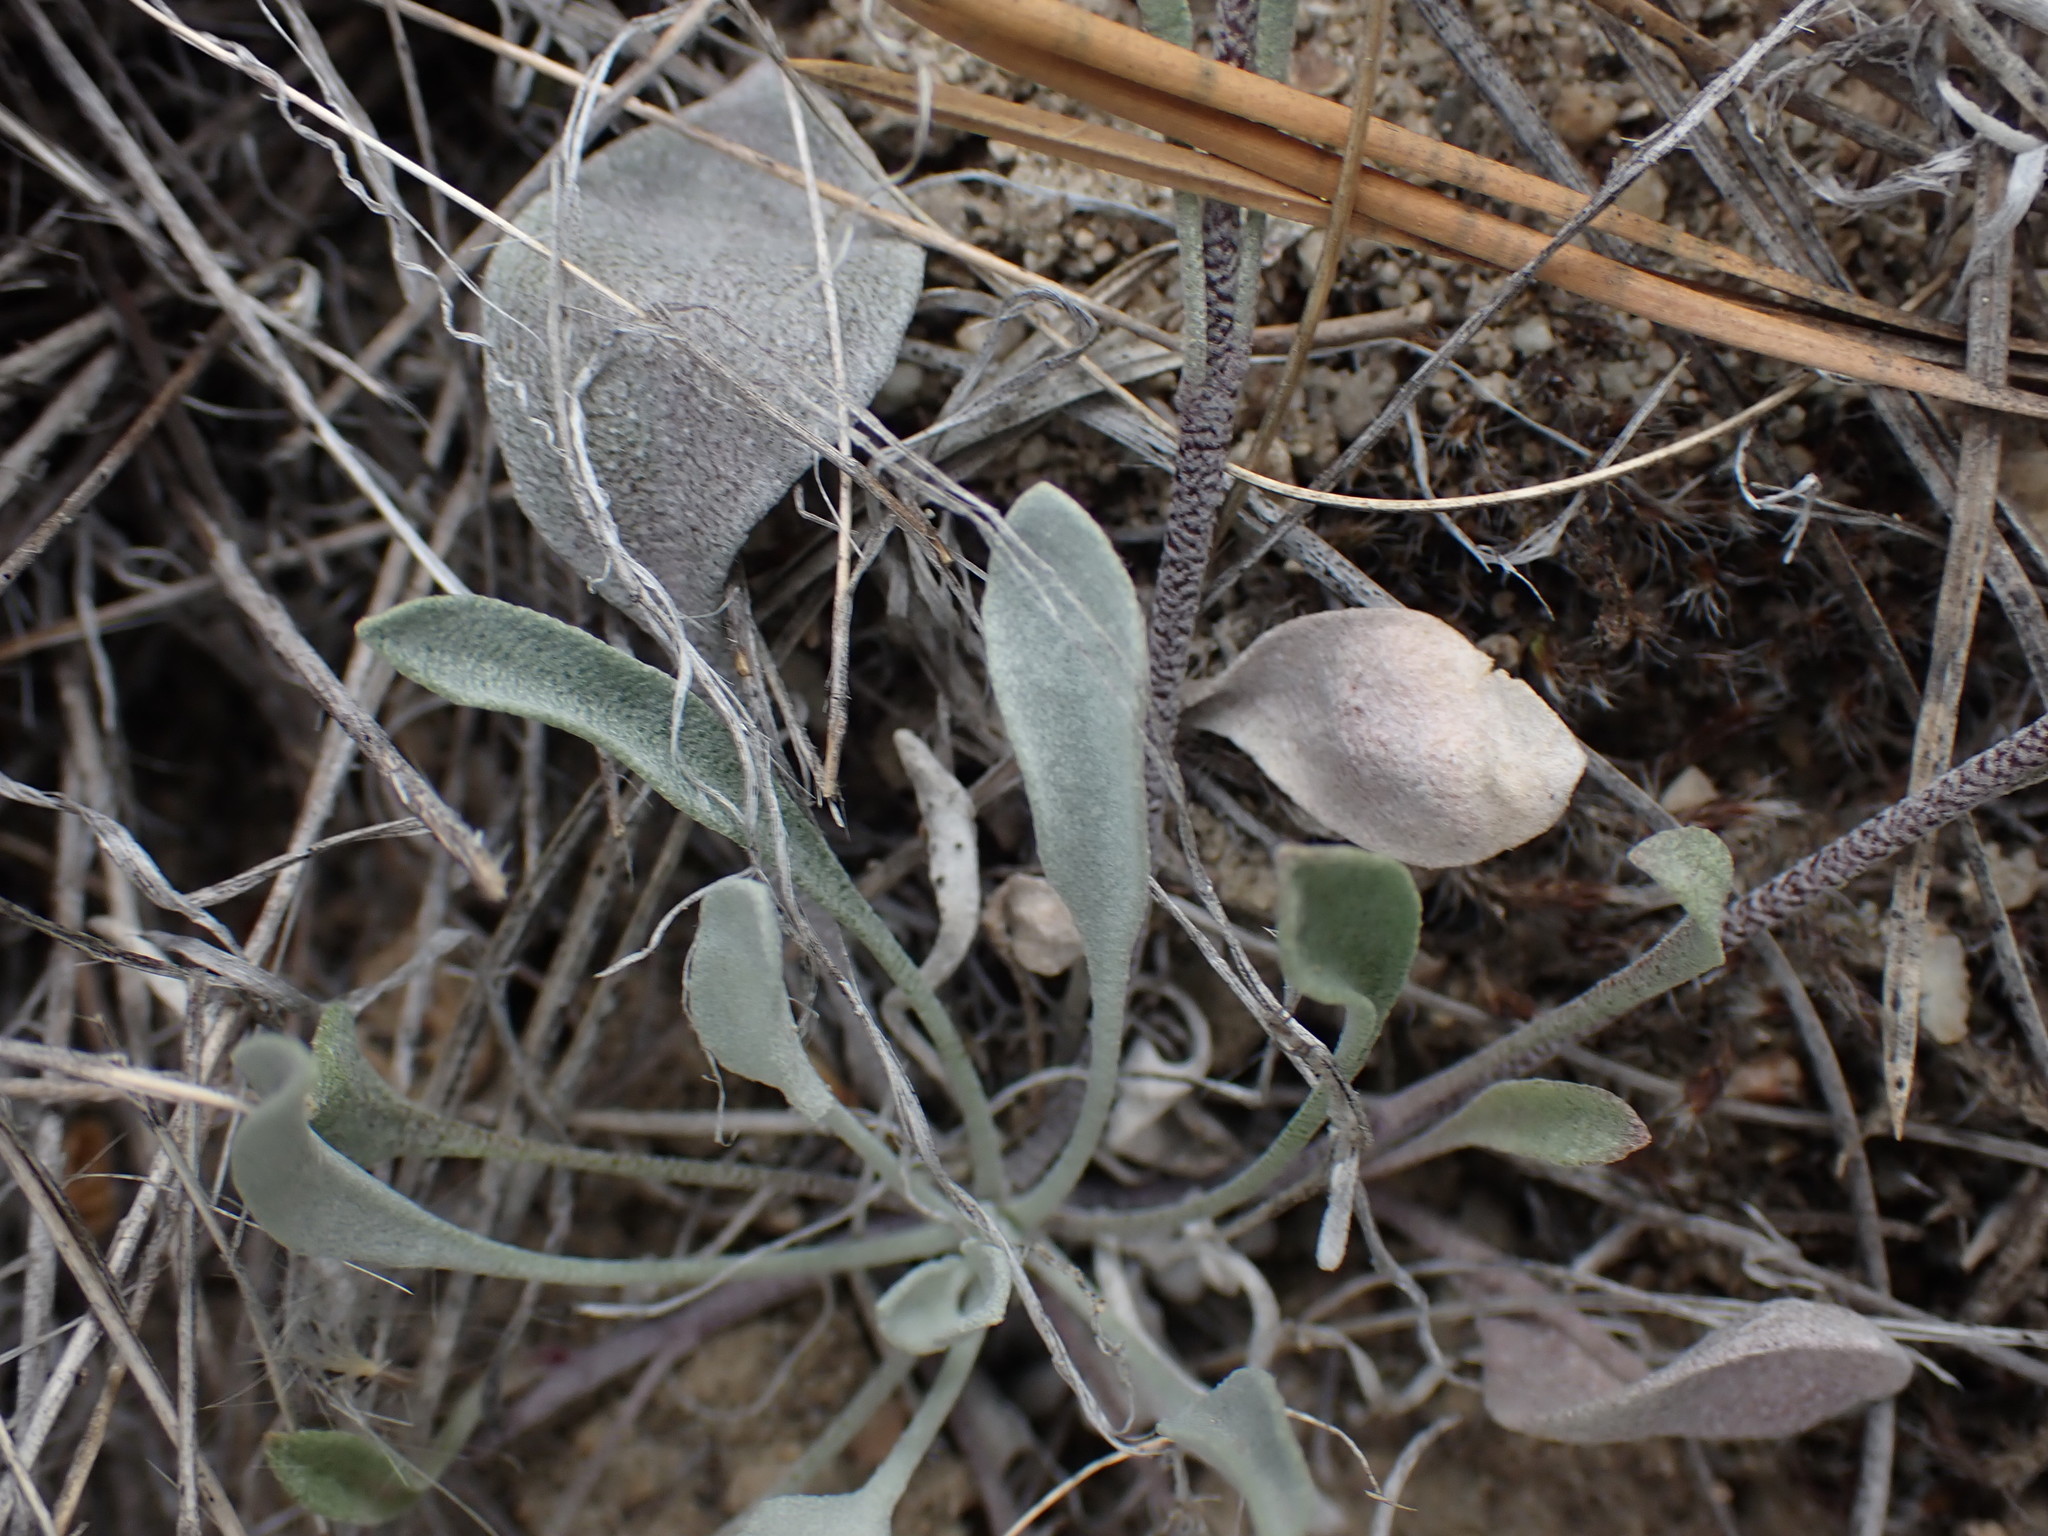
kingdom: Plantae
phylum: Tracheophyta
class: Magnoliopsida
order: Brassicales
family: Brassicaceae
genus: Physaria
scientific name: Physaria douglasii
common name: Douglas's bladderpod
